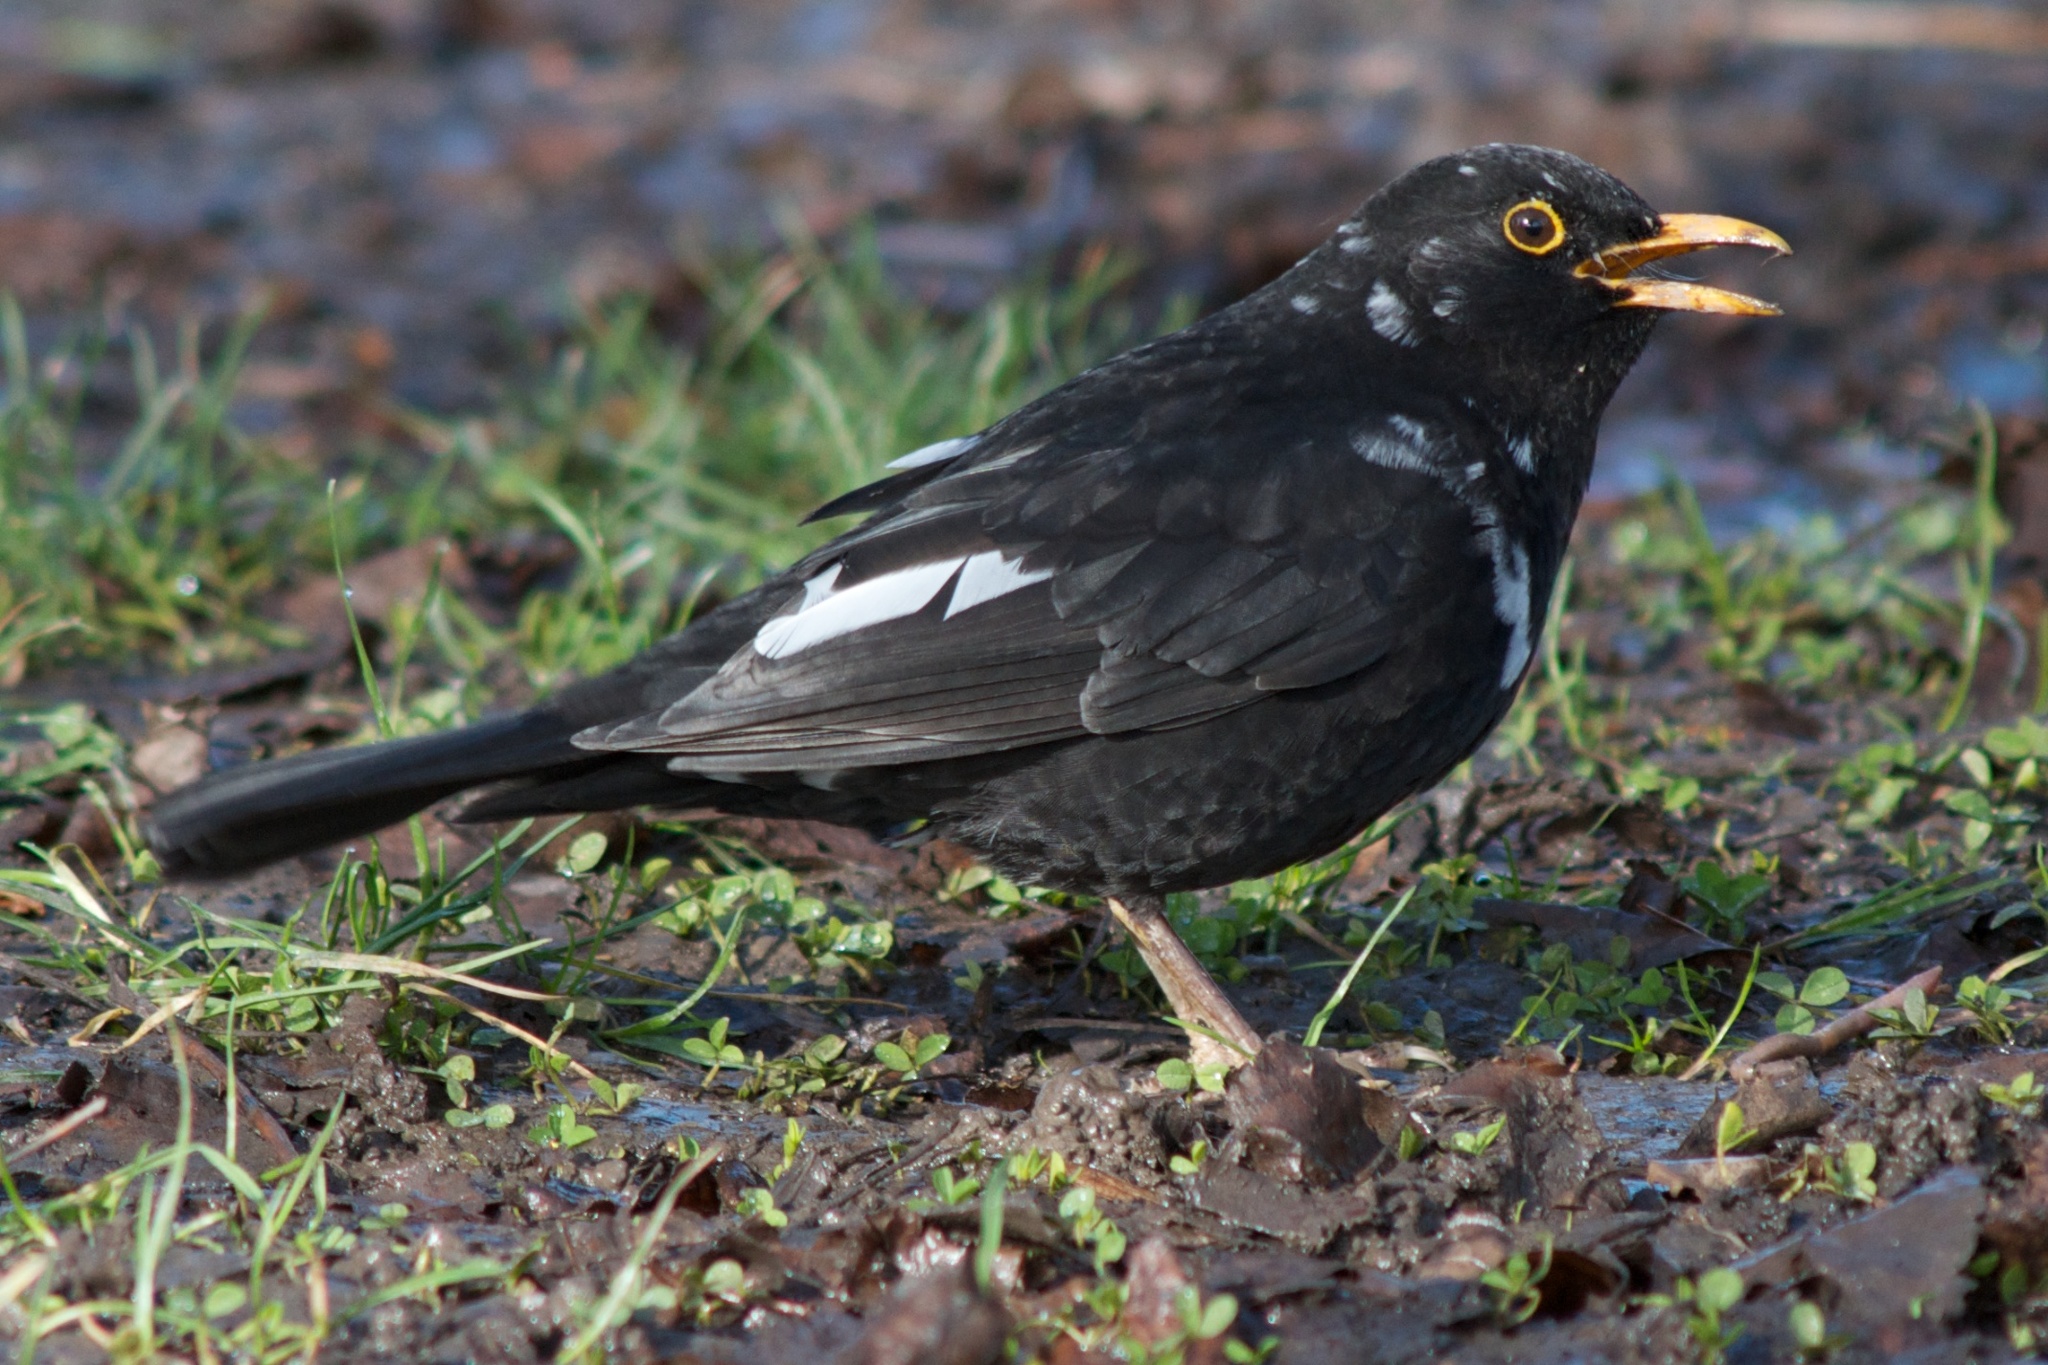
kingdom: Animalia
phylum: Chordata
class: Aves
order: Passeriformes
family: Turdidae
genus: Turdus
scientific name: Turdus merula
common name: Common blackbird
